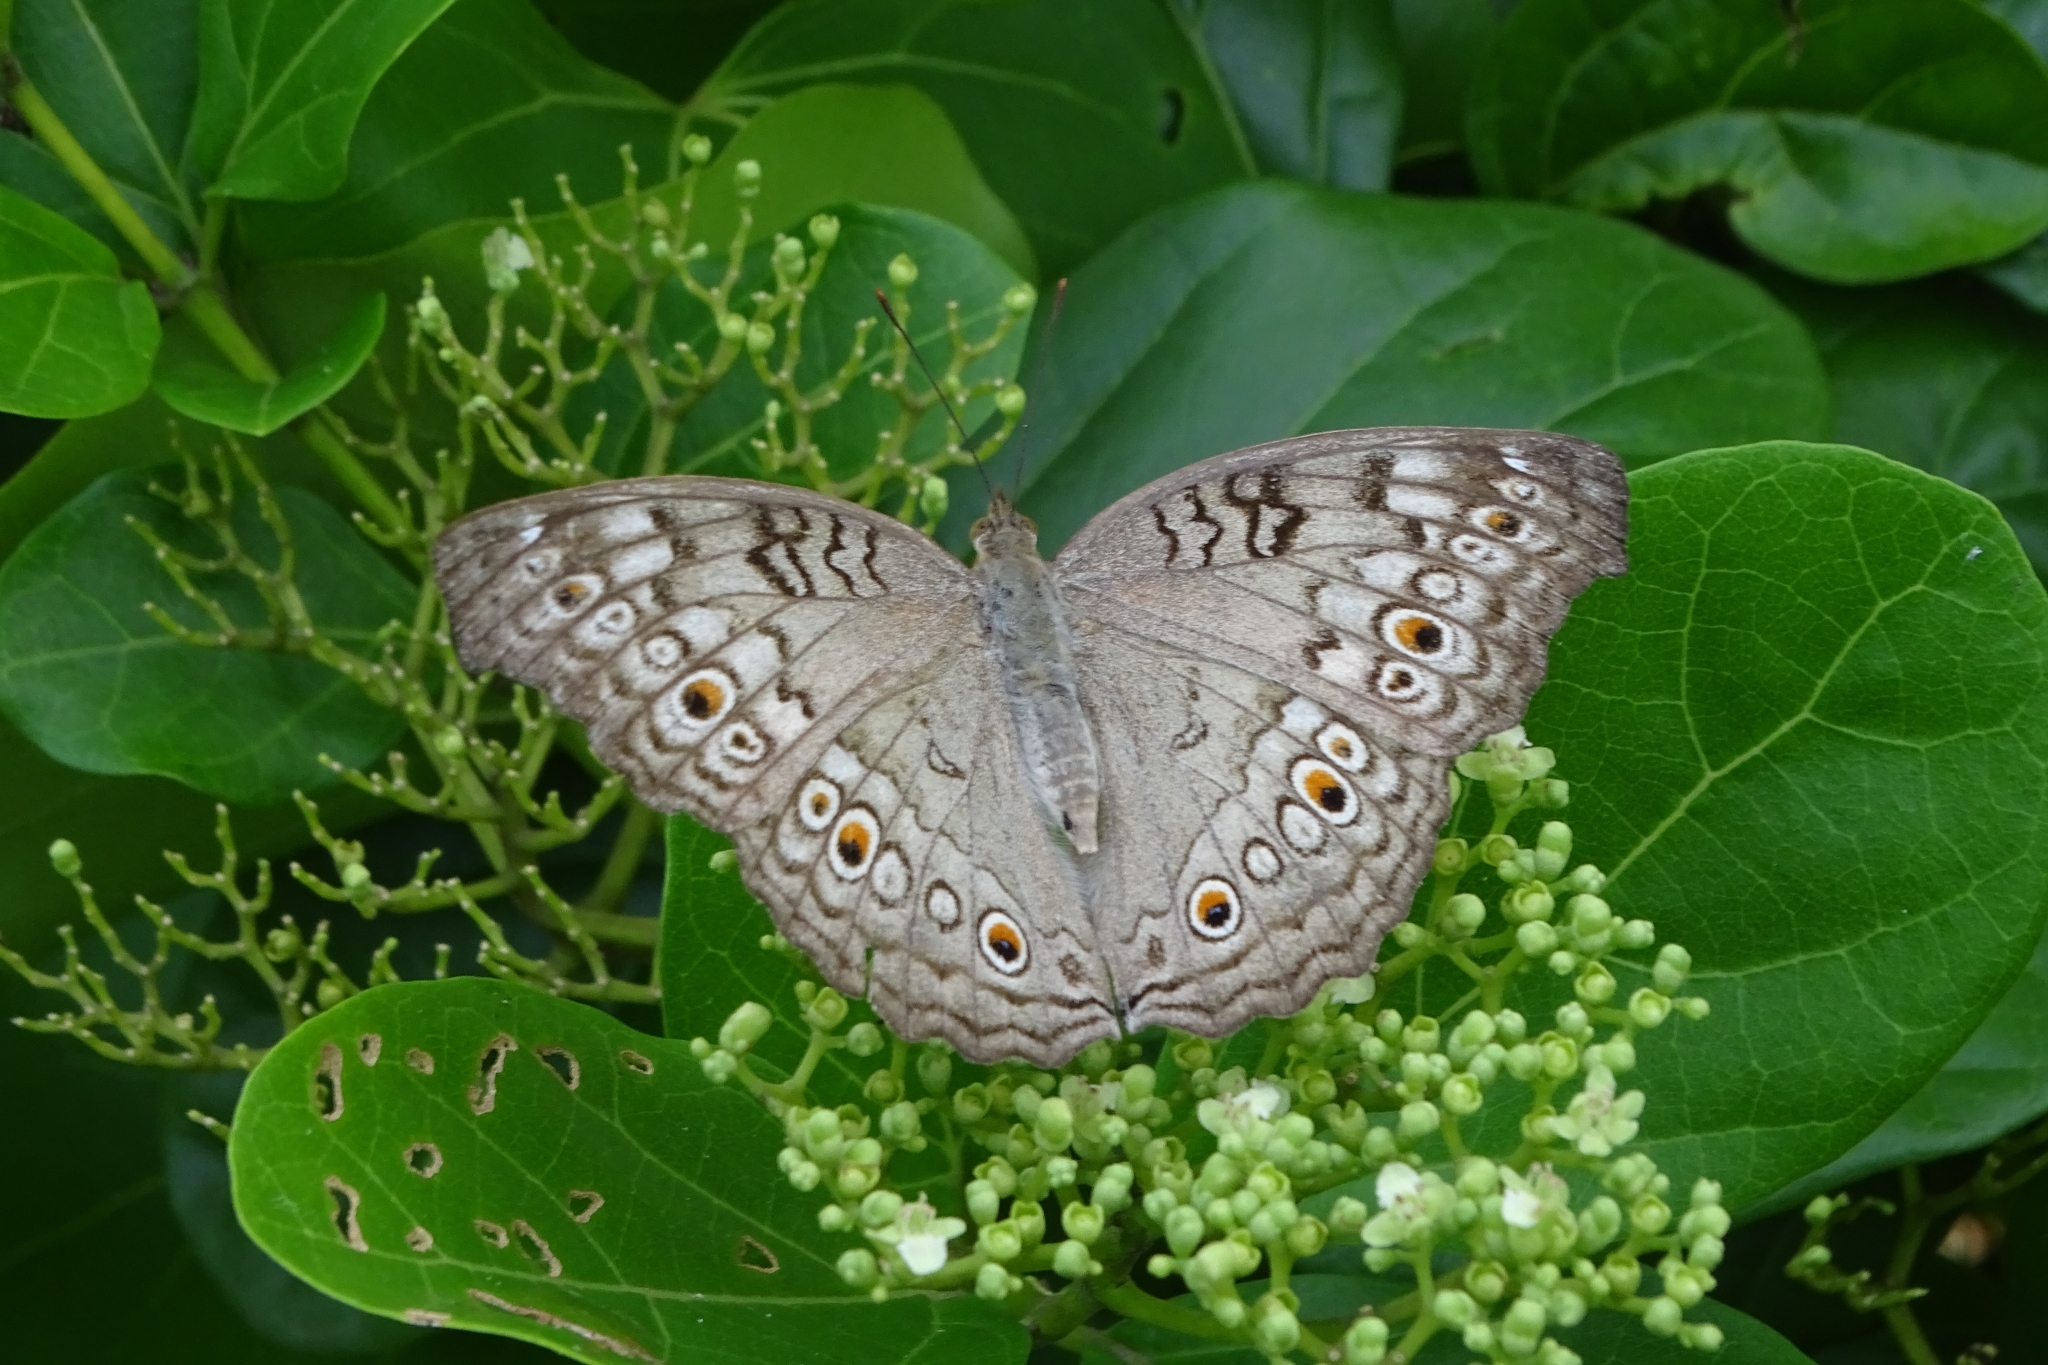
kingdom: Animalia
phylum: Arthropoda
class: Insecta
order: Lepidoptera
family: Nymphalidae
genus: Junonia
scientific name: Junonia atlites
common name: Grey pansy
